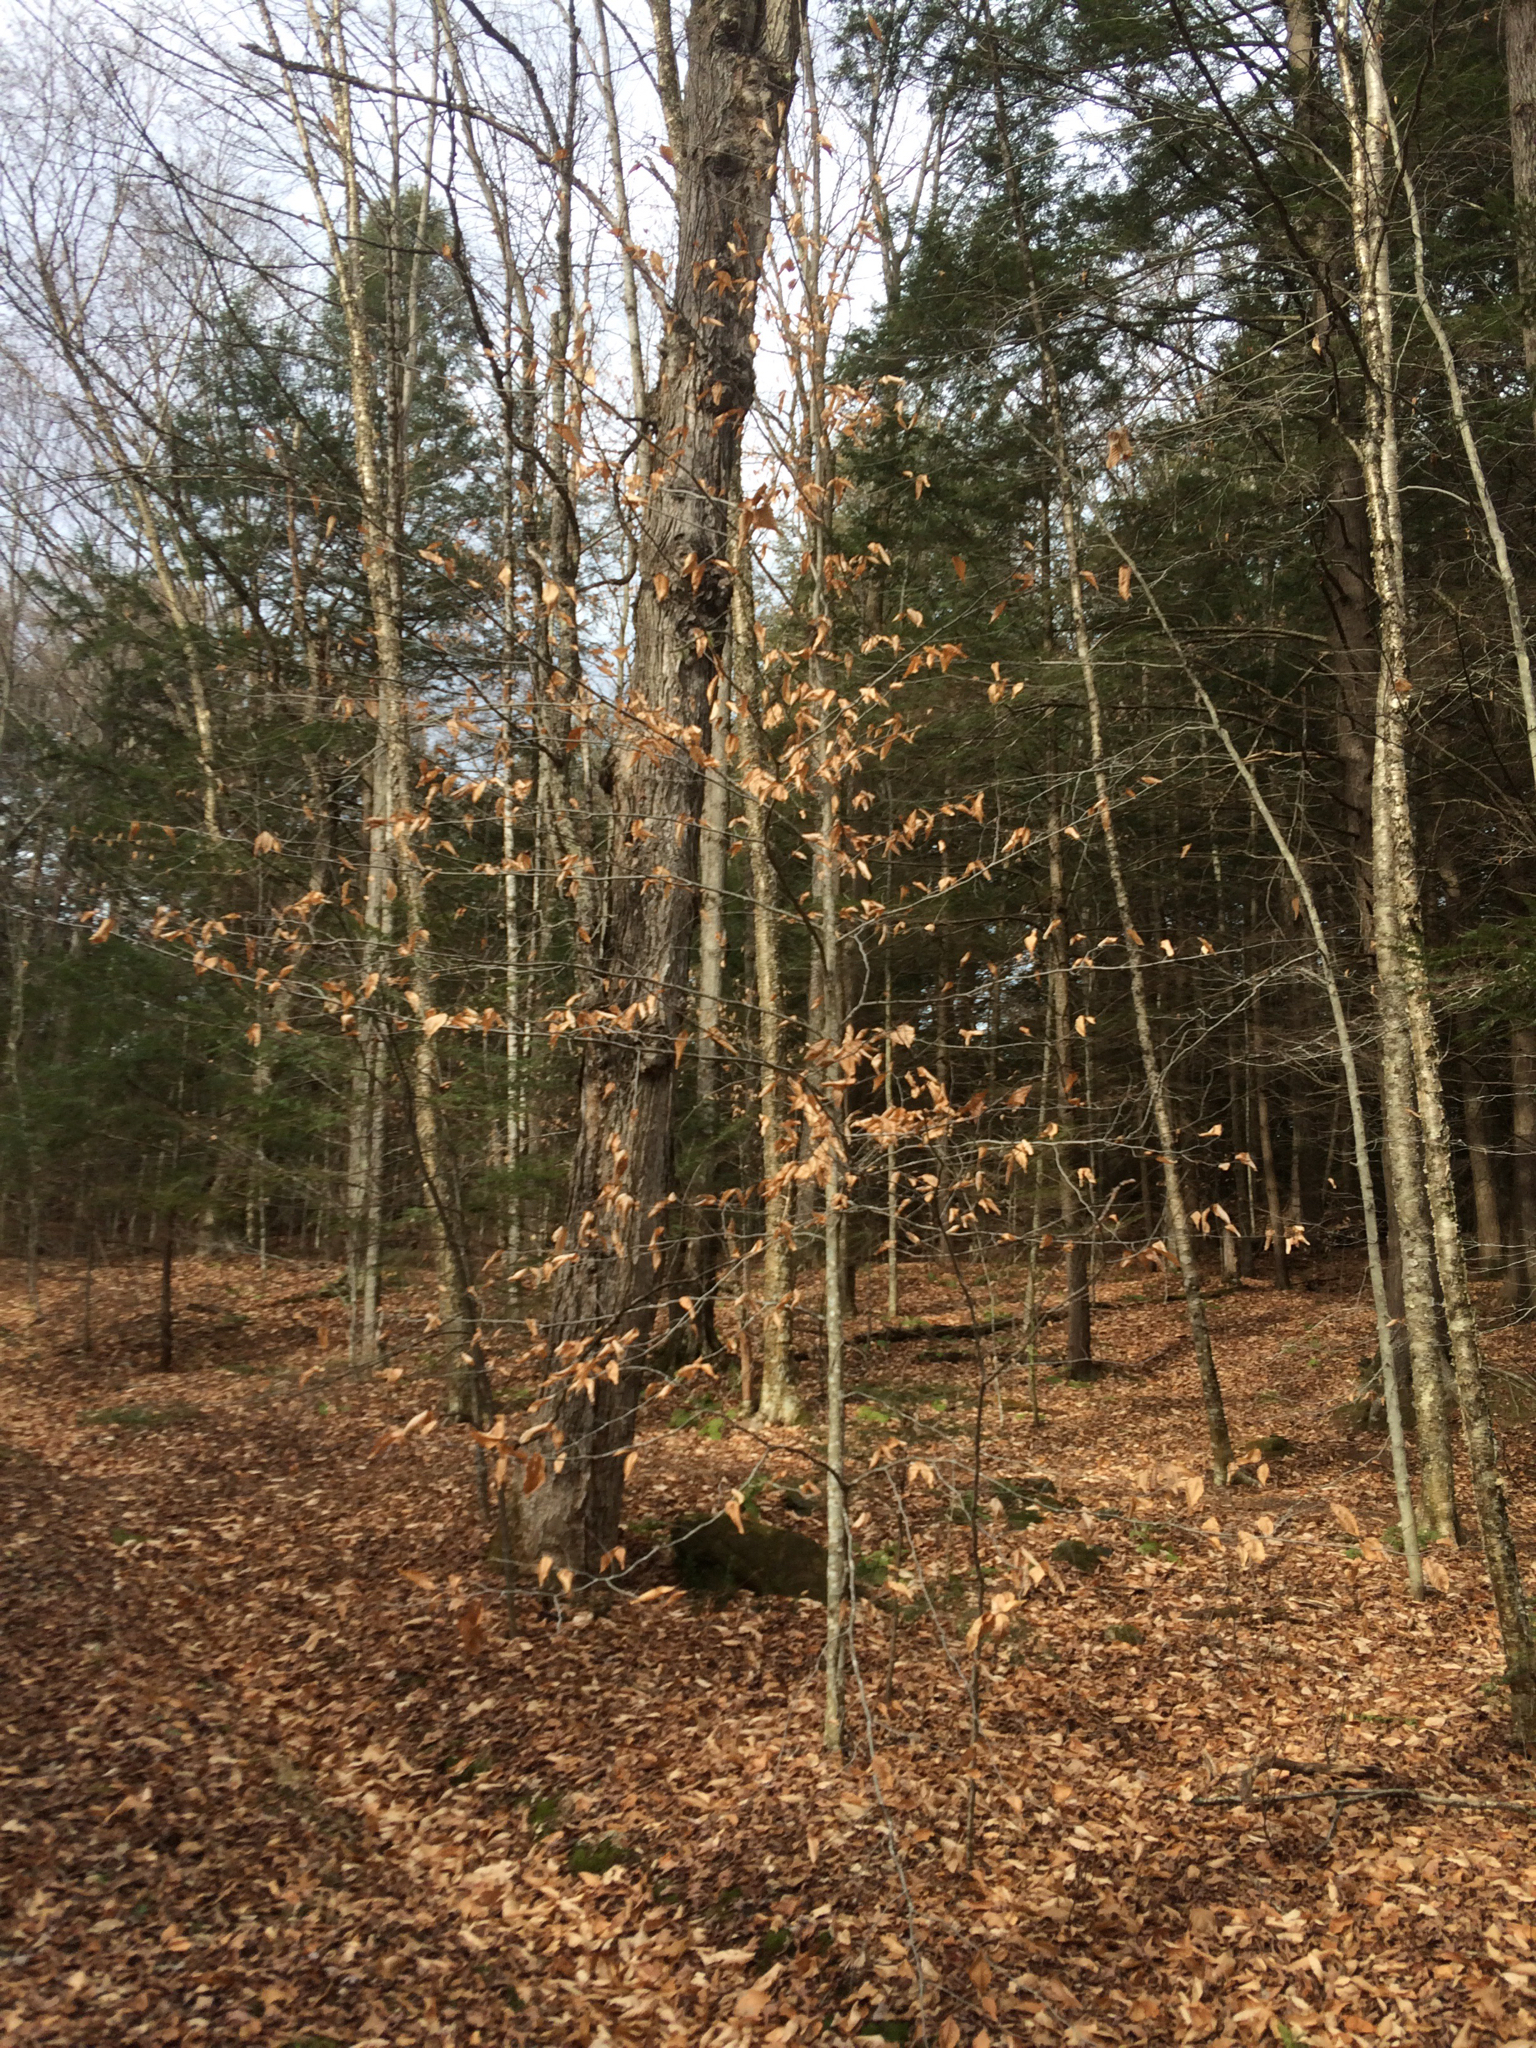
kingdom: Plantae
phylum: Tracheophyta
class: Magnoliopsida
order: Fagales
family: Fagaceae
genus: Fagus
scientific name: Fagus grandifolia
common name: American beech
